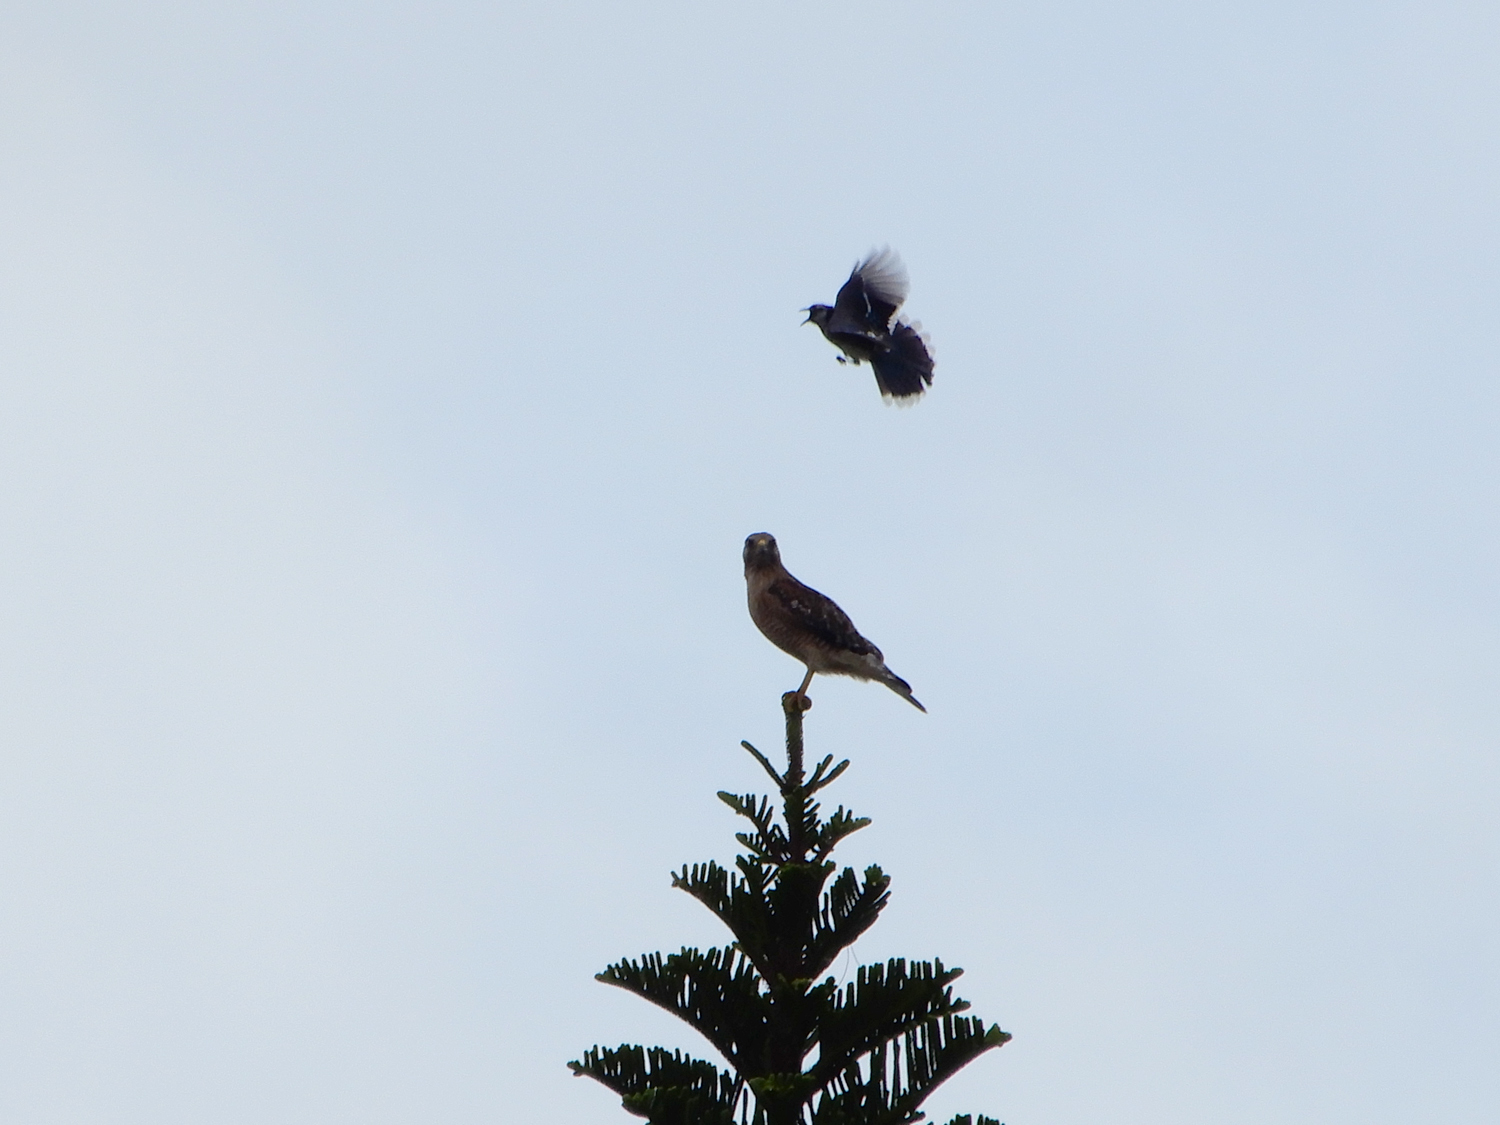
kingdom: Animalia
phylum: Chordata
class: Aves
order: Passeriformes
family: Corvidae
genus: Cyanocitta
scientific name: Cyanocitta cristata
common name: Blue jay
